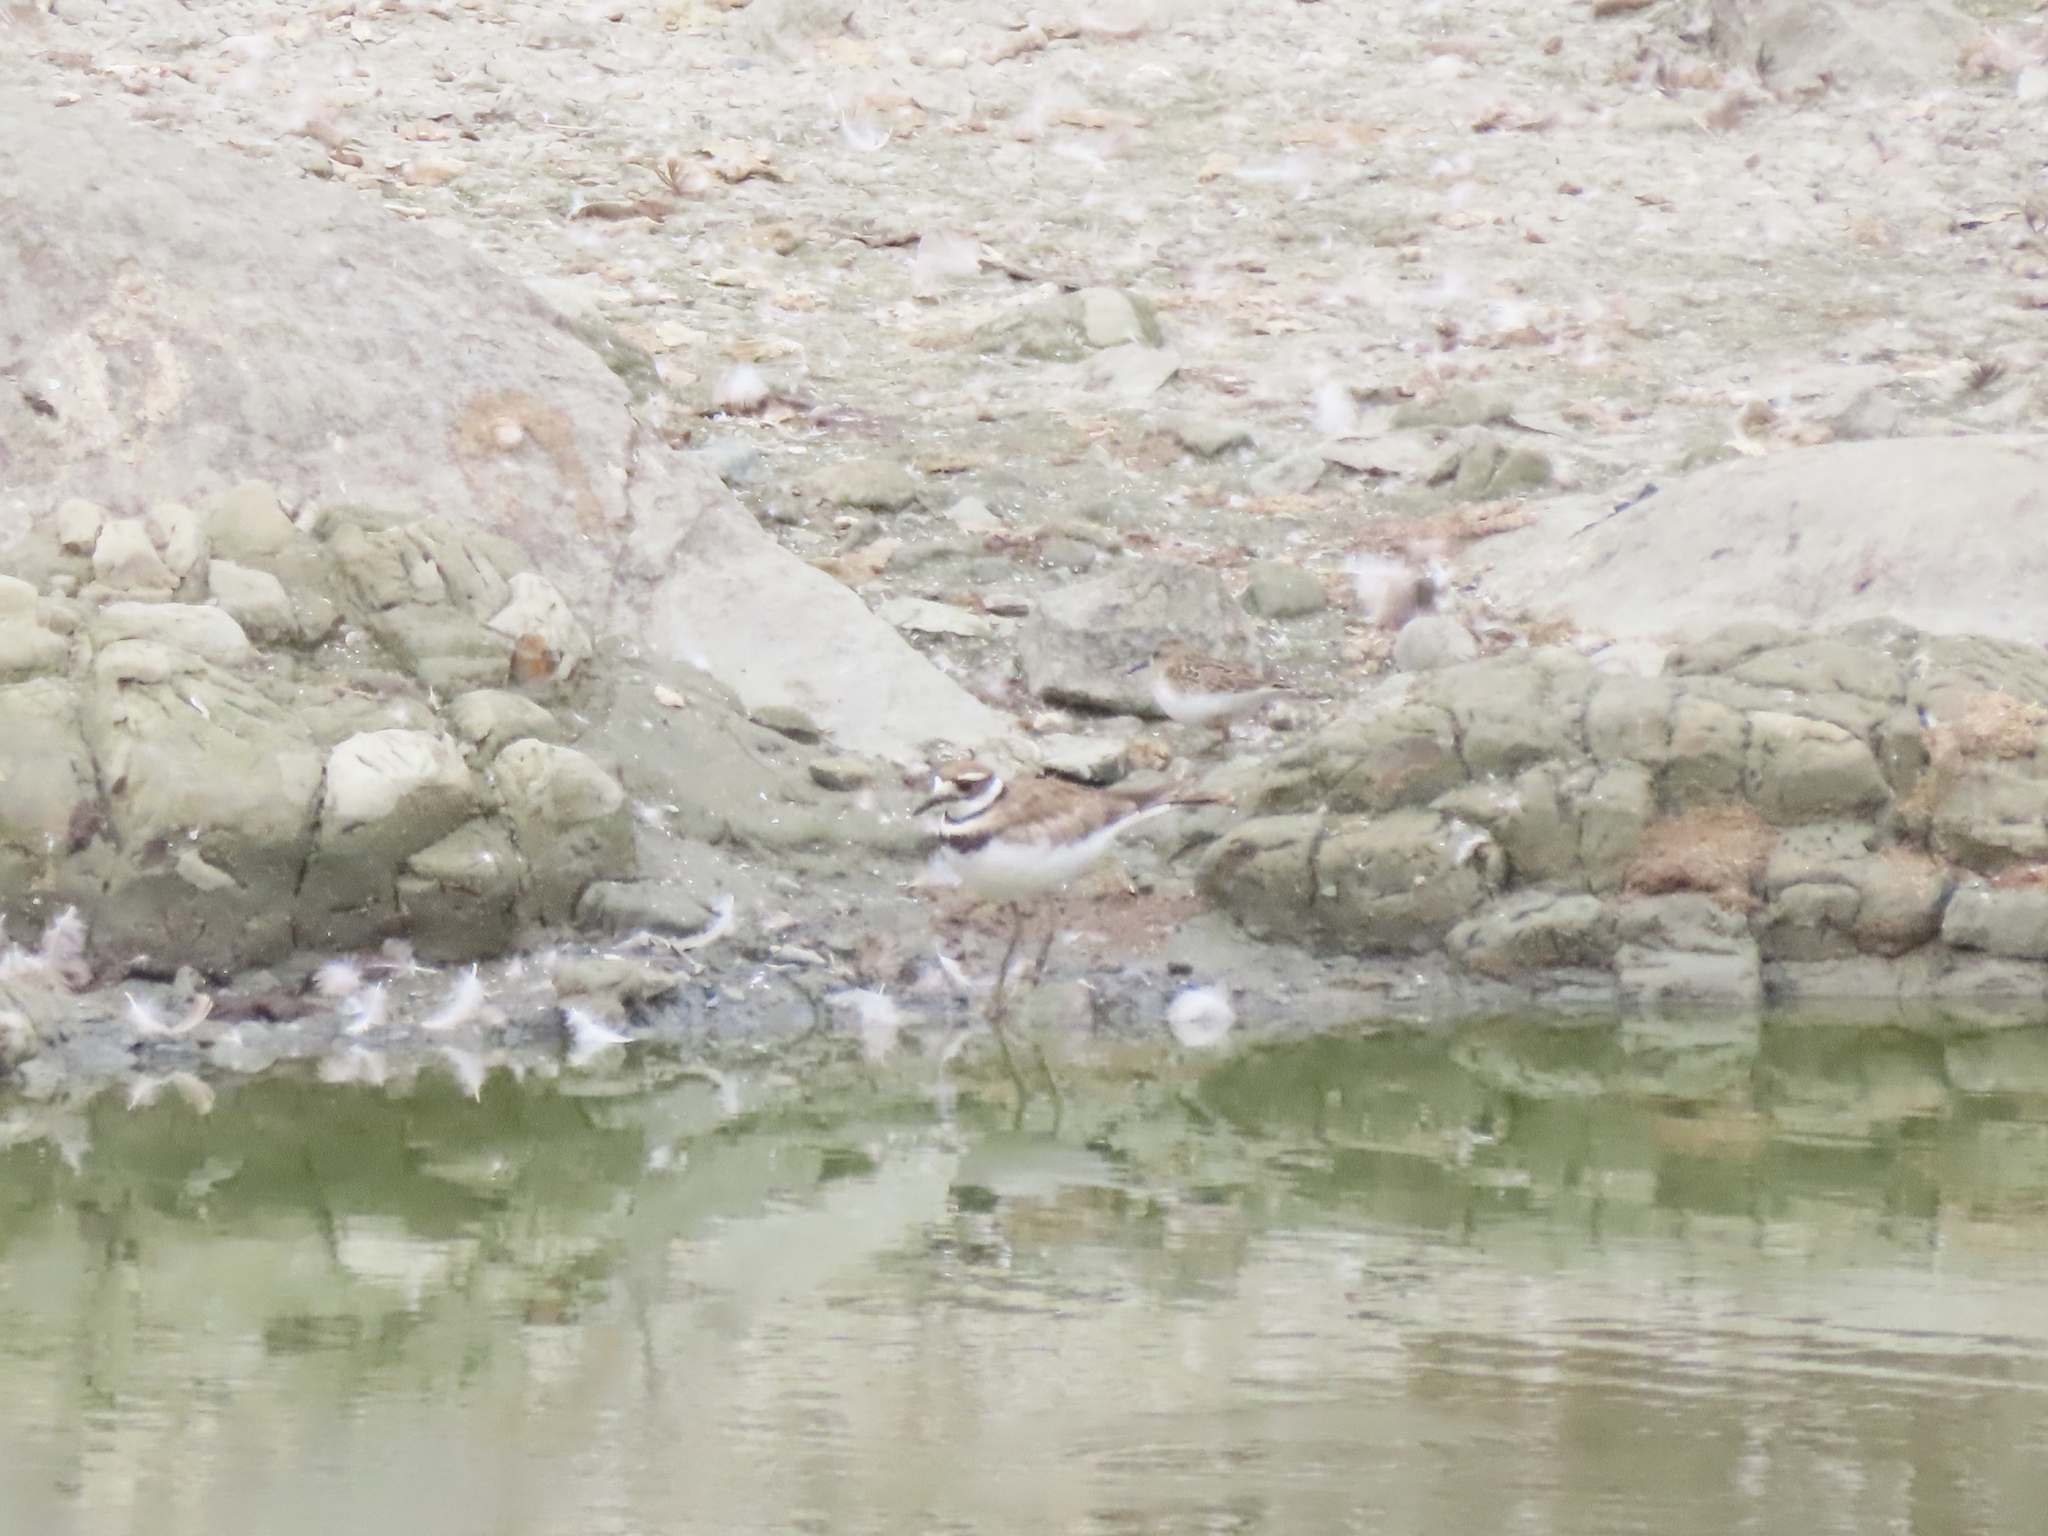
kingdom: Animalia
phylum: Chordata
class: Aves
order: Charadriiformes
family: Charadriidae
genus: Charadrius
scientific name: Charadrius vociferus
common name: Killdeer
